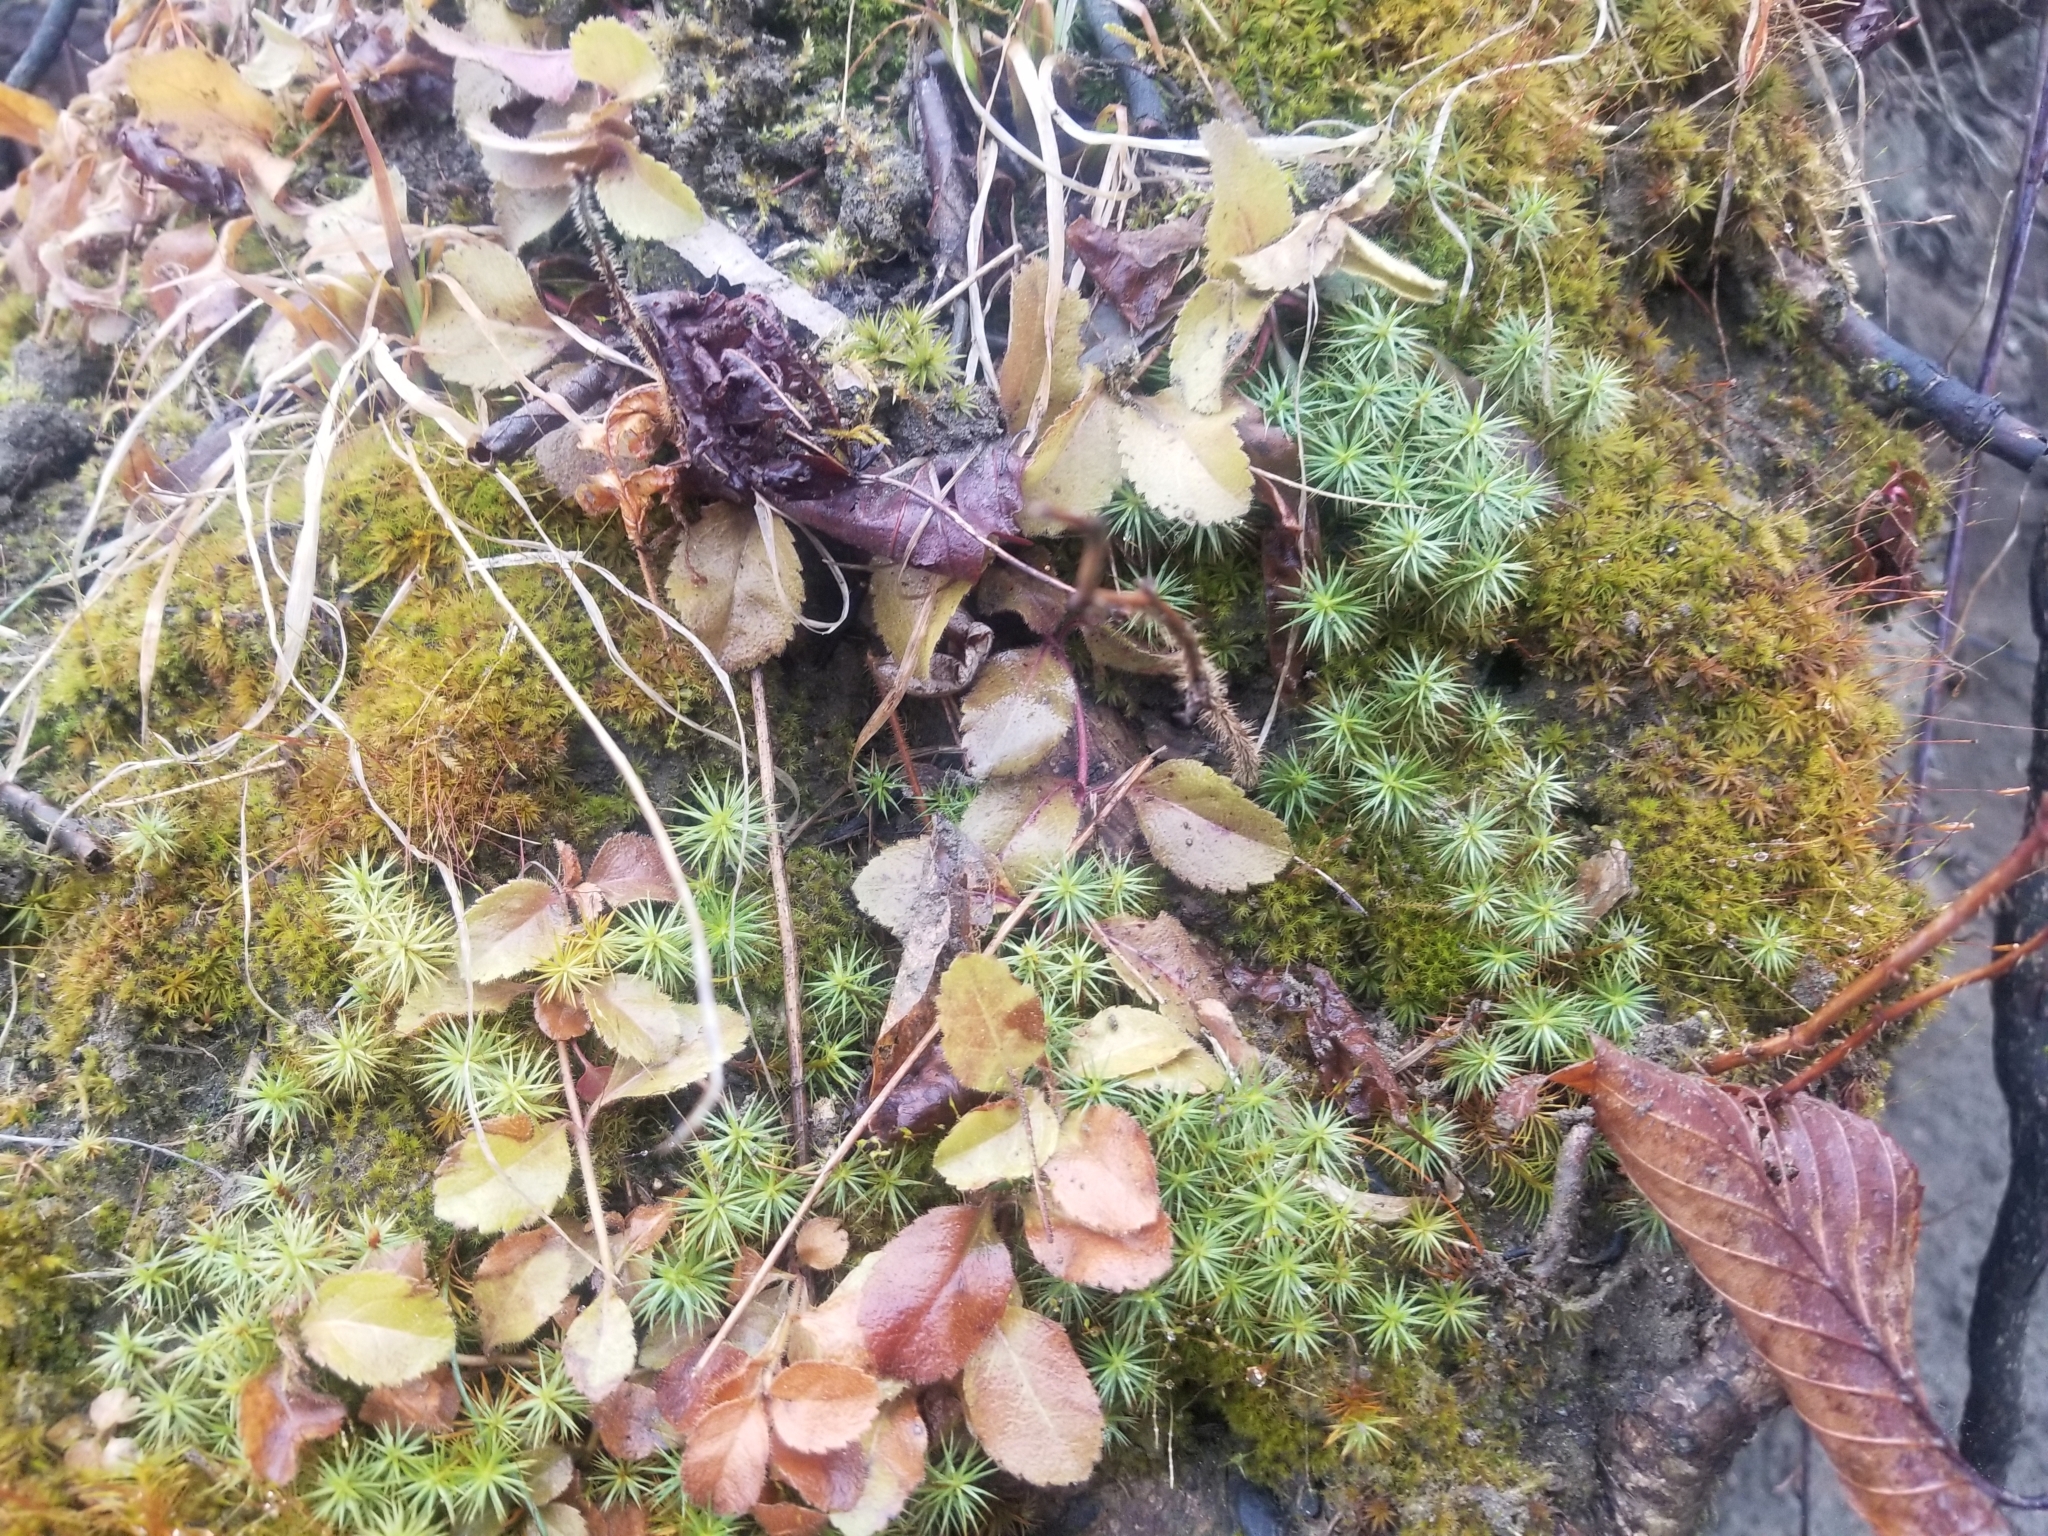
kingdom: Plantae
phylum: Bryophyta
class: Polytrichopsida
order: Polytrichales
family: Polytrichaceae
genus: Polytrichum
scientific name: Polytrichum juniperinum
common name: Juniper haircap moss
